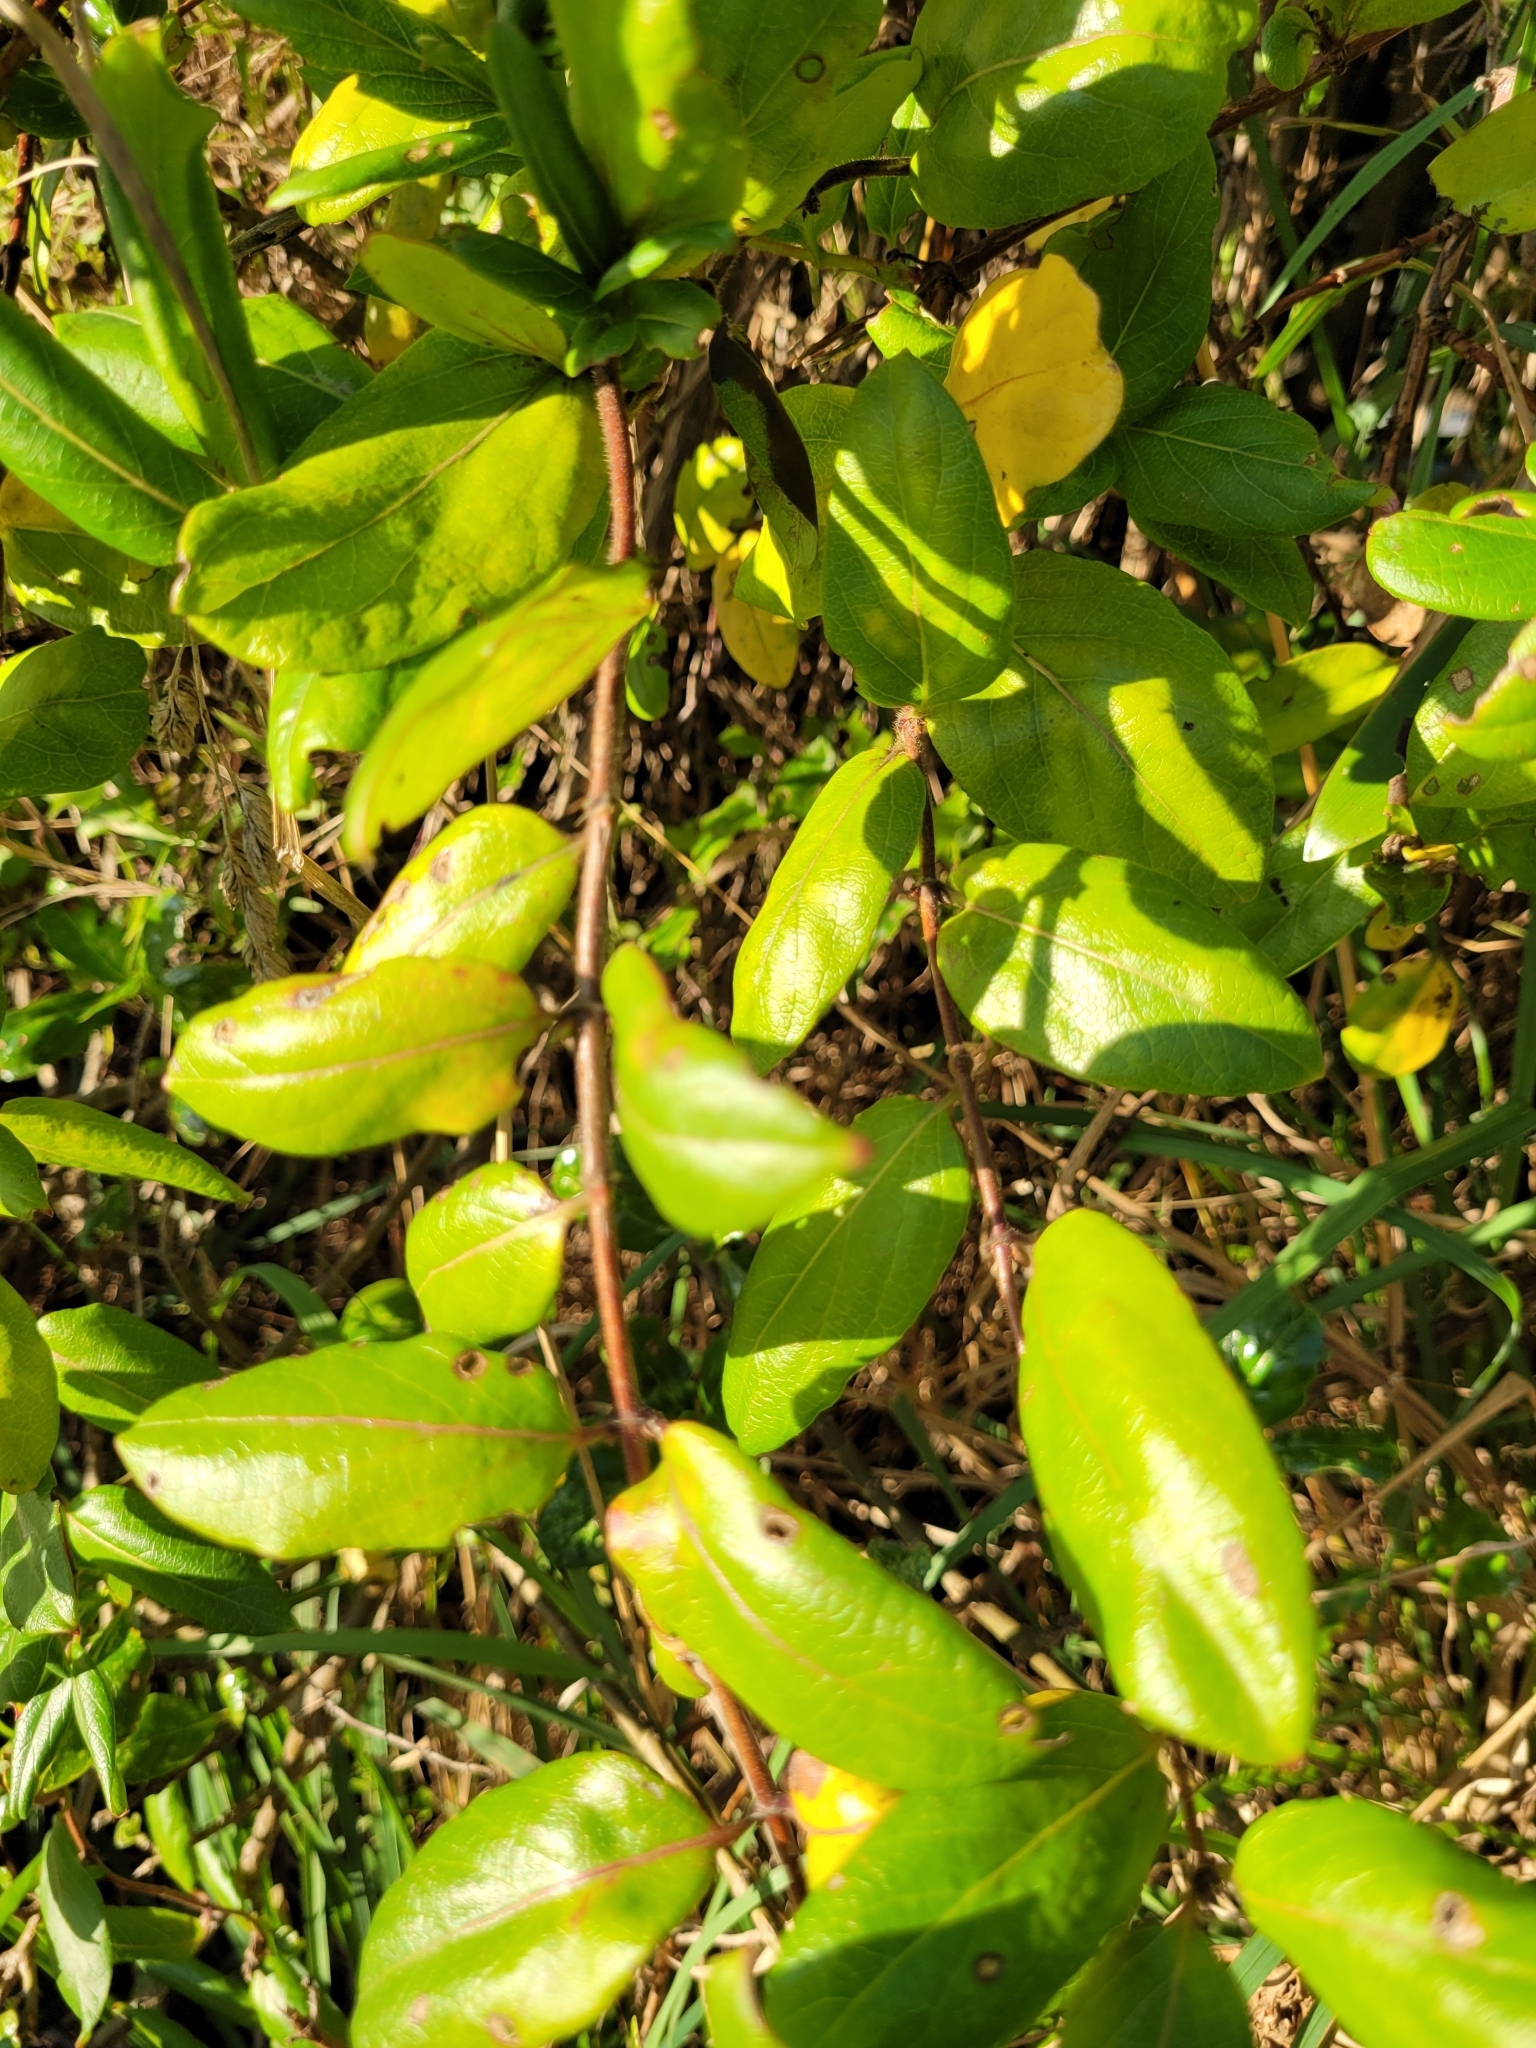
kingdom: Plantae
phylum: Tracheophyta
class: Magnoliopsida
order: Dipsacales
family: Caprifoliaceae
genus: Lonicera
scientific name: Lonicera japonica
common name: Japanese honeysuckle
